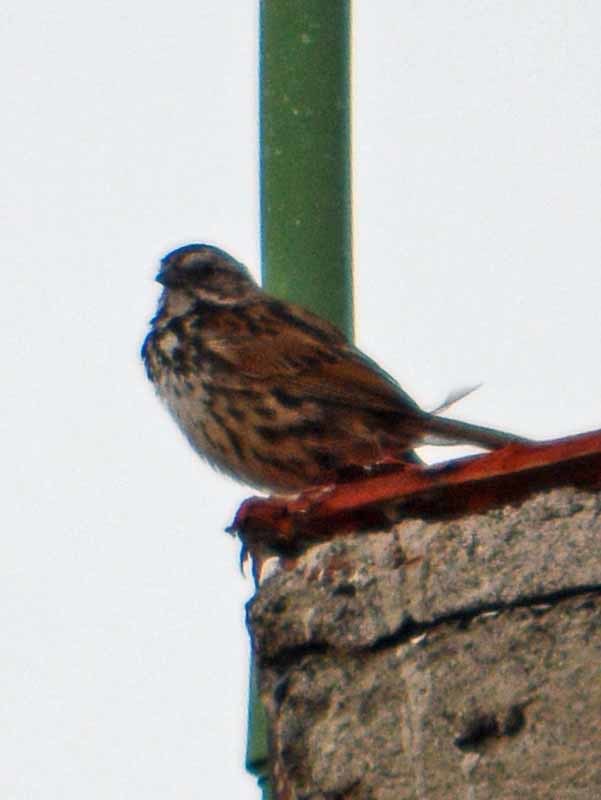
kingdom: Animalia
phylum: Chordata
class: Aves
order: Passeriformes
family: Passerellidae
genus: Melospiza
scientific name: Melospiza melodia
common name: Song sparrow
